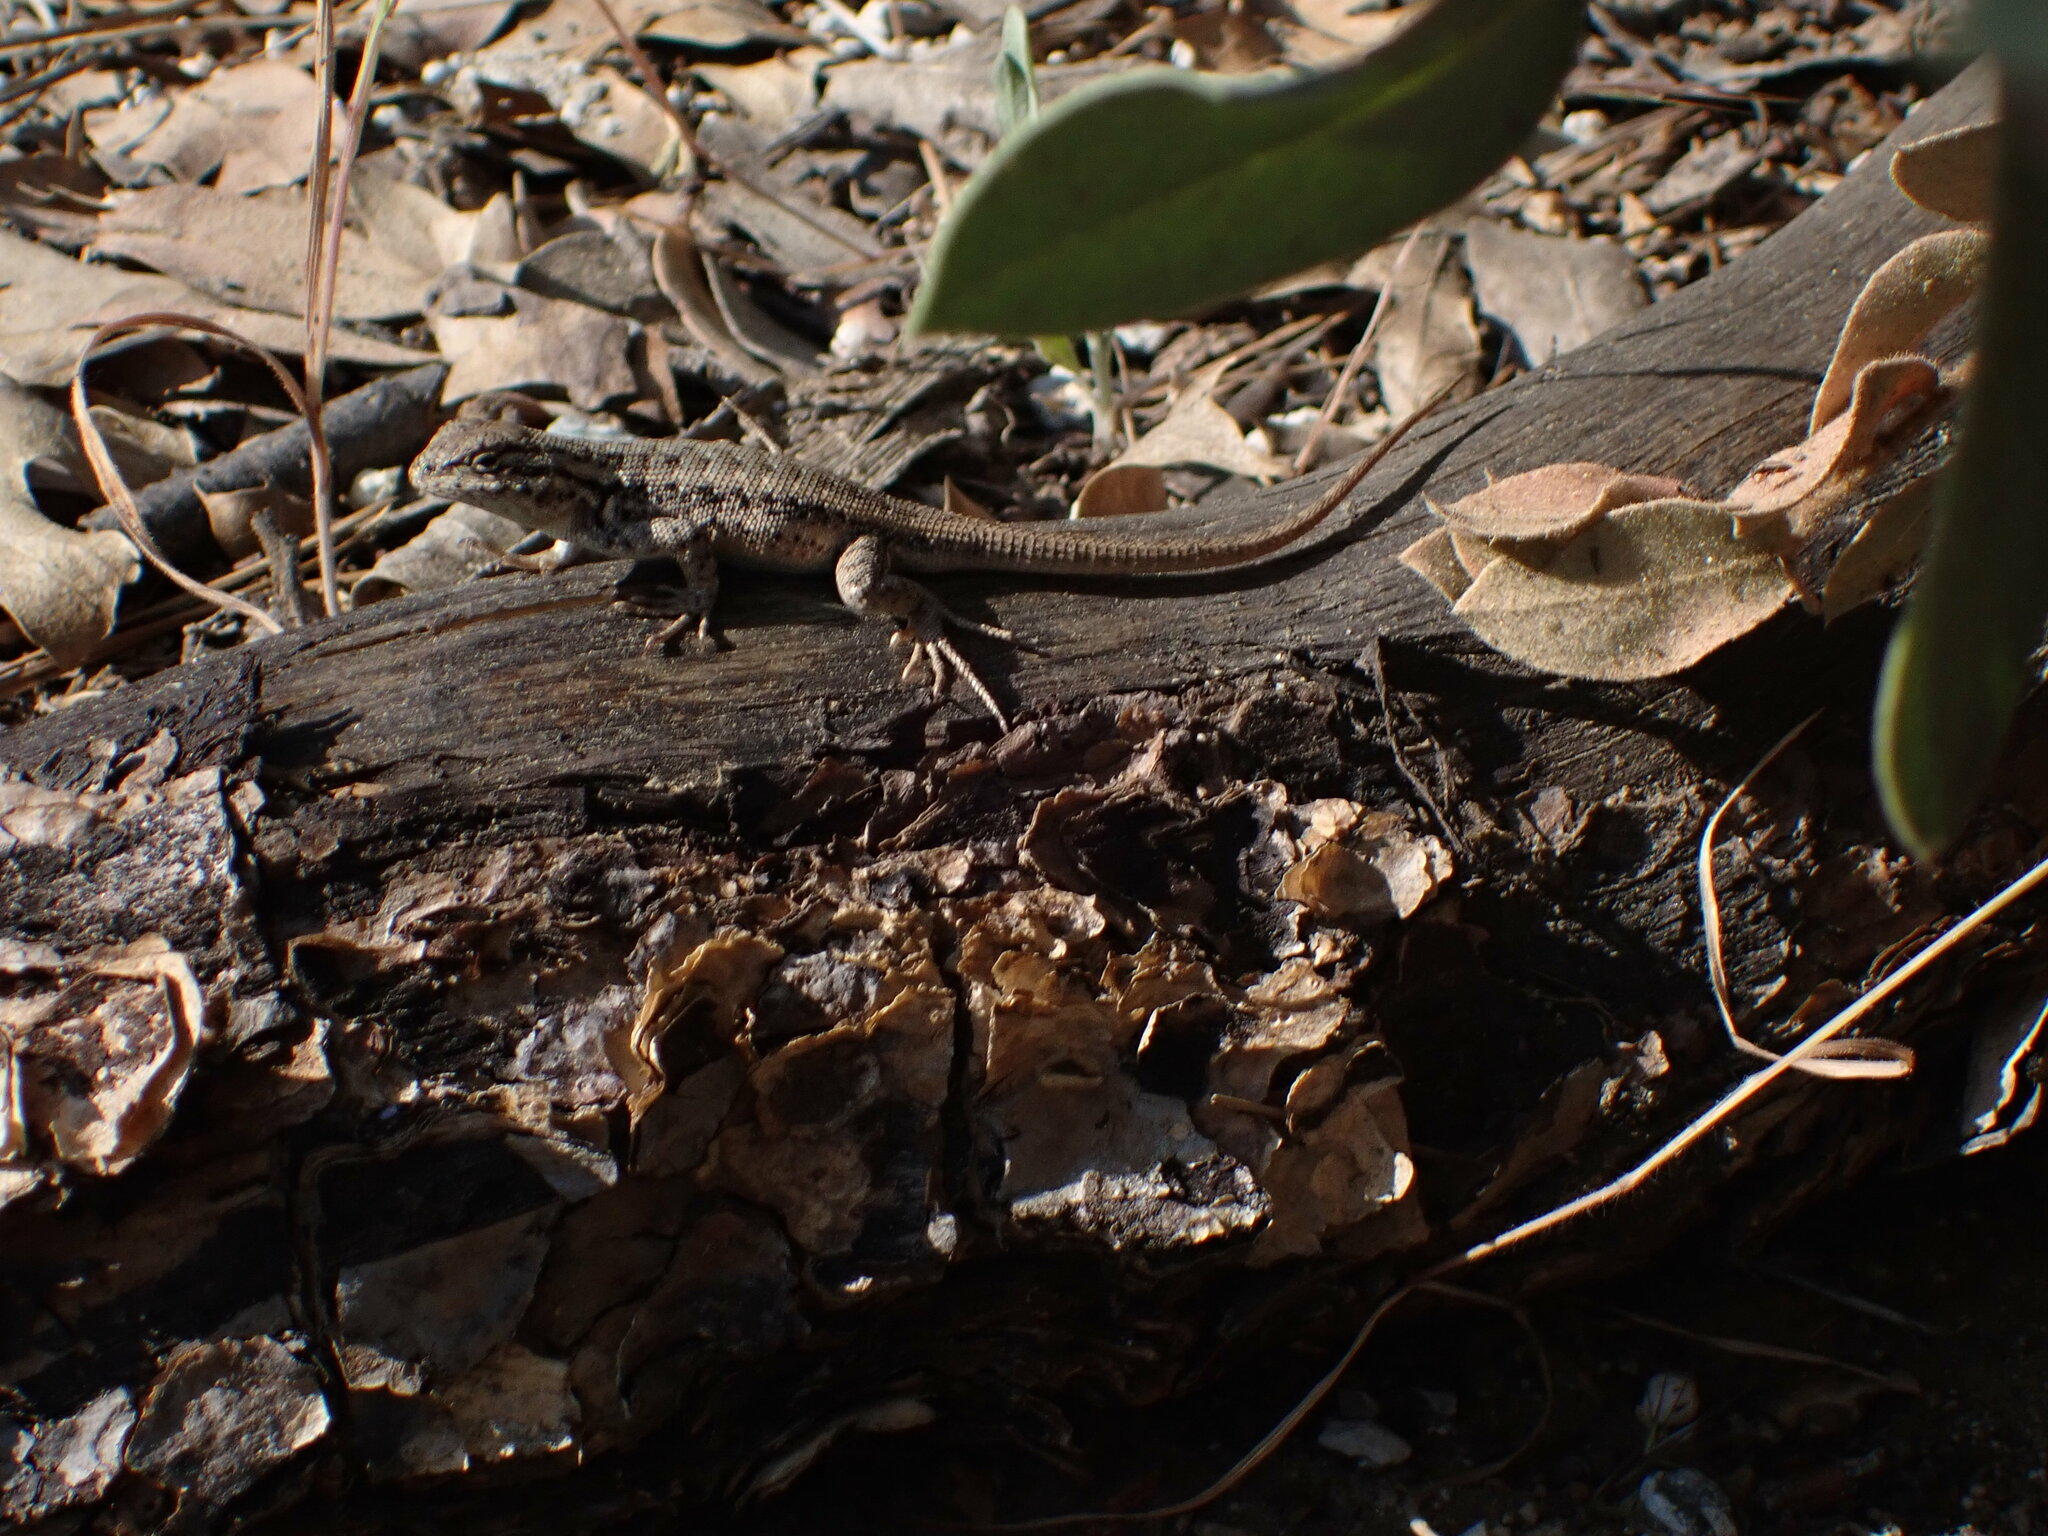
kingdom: Animalia
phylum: Chordata
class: Squamata
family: Phrynosomatidae
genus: Sceloporus
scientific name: Sceloporus graciosus
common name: Sagebrush lizard
